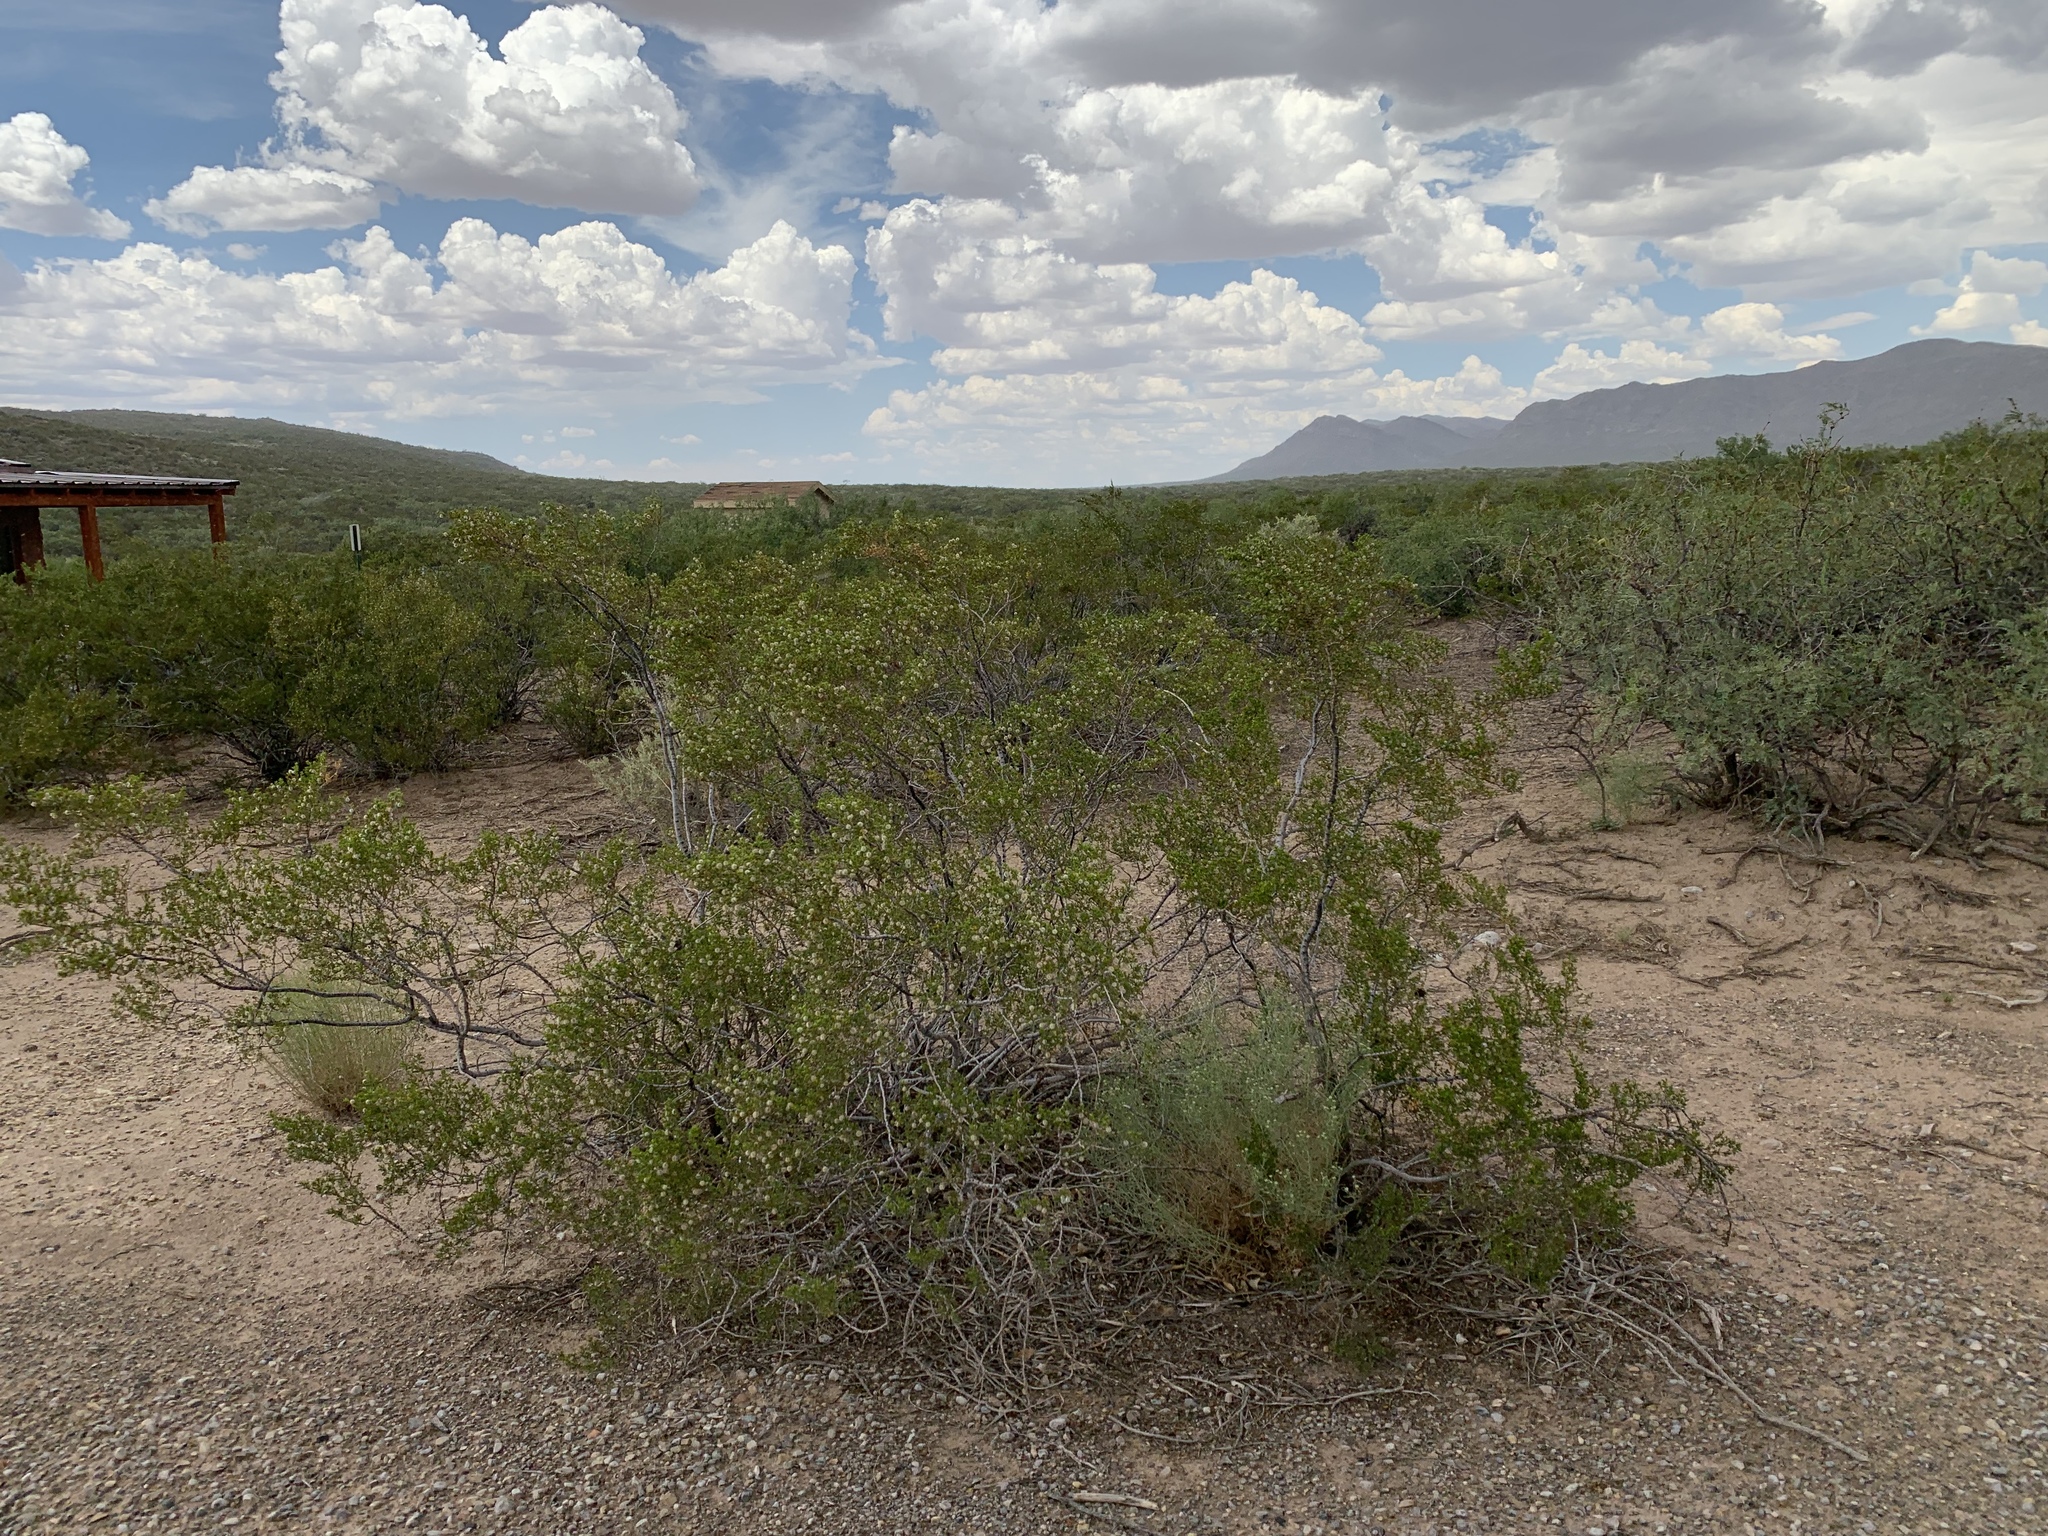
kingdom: Plantae
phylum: Tracheophyta
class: Magnoliopsida
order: Zygophyllales
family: Zygophyllaceae
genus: Larrea
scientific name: Larrea tridentata
